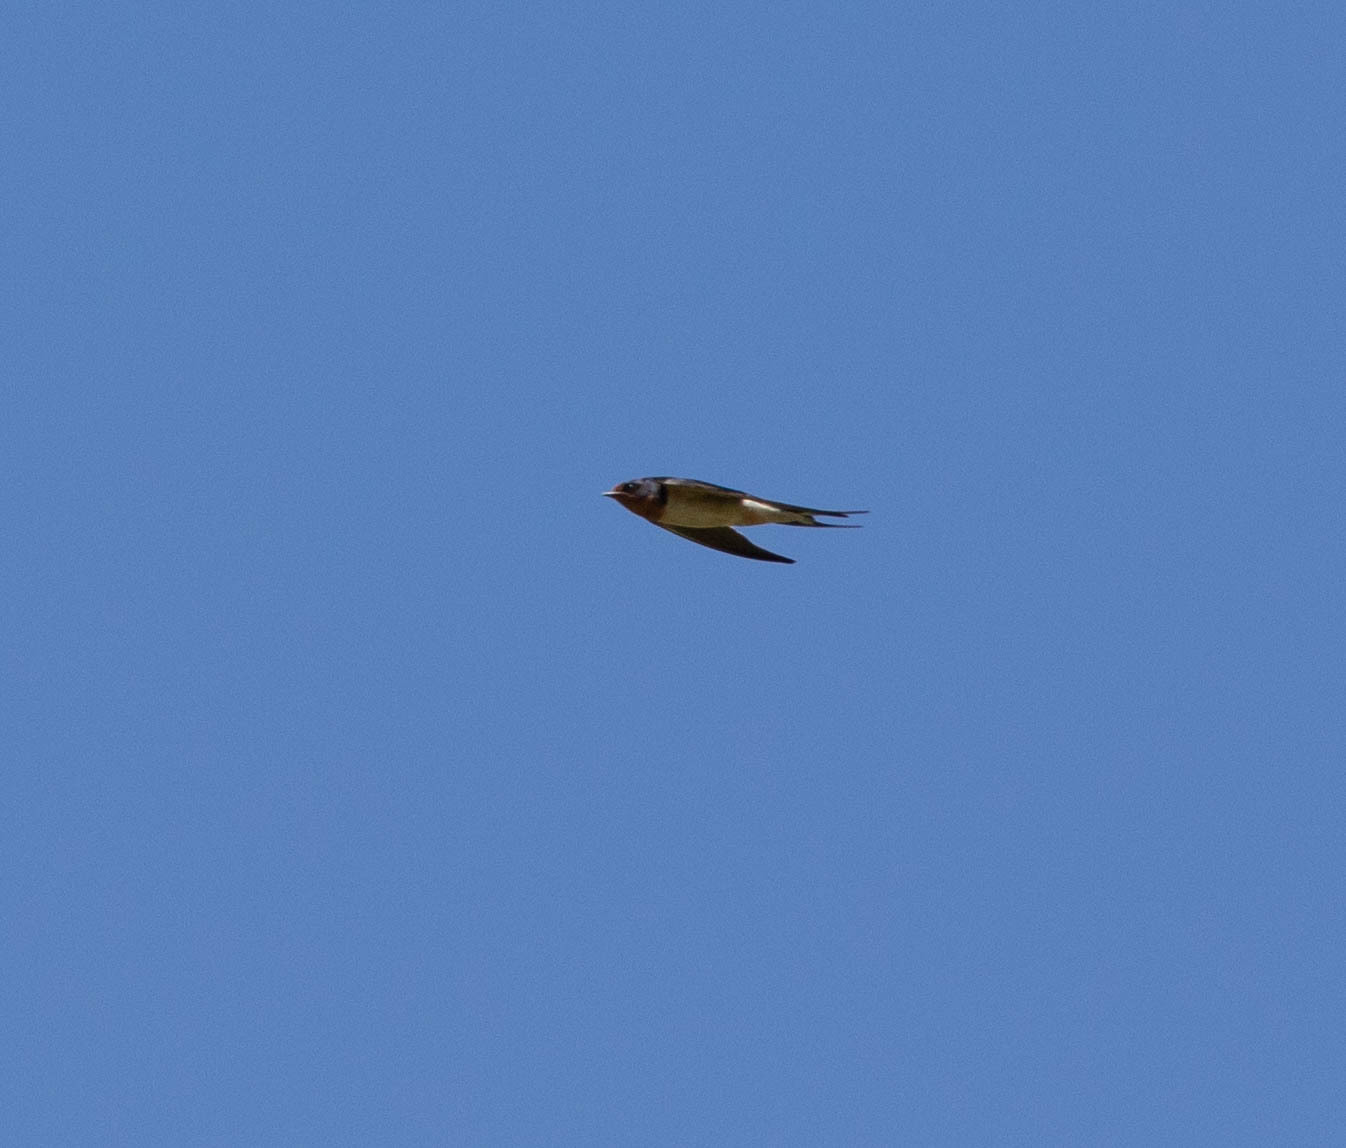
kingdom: Animalia
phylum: Chordata
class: Aves
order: Passeriformes
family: Hirundinidae
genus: Hirundo
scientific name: Hirundo rustica
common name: Barn swallow
